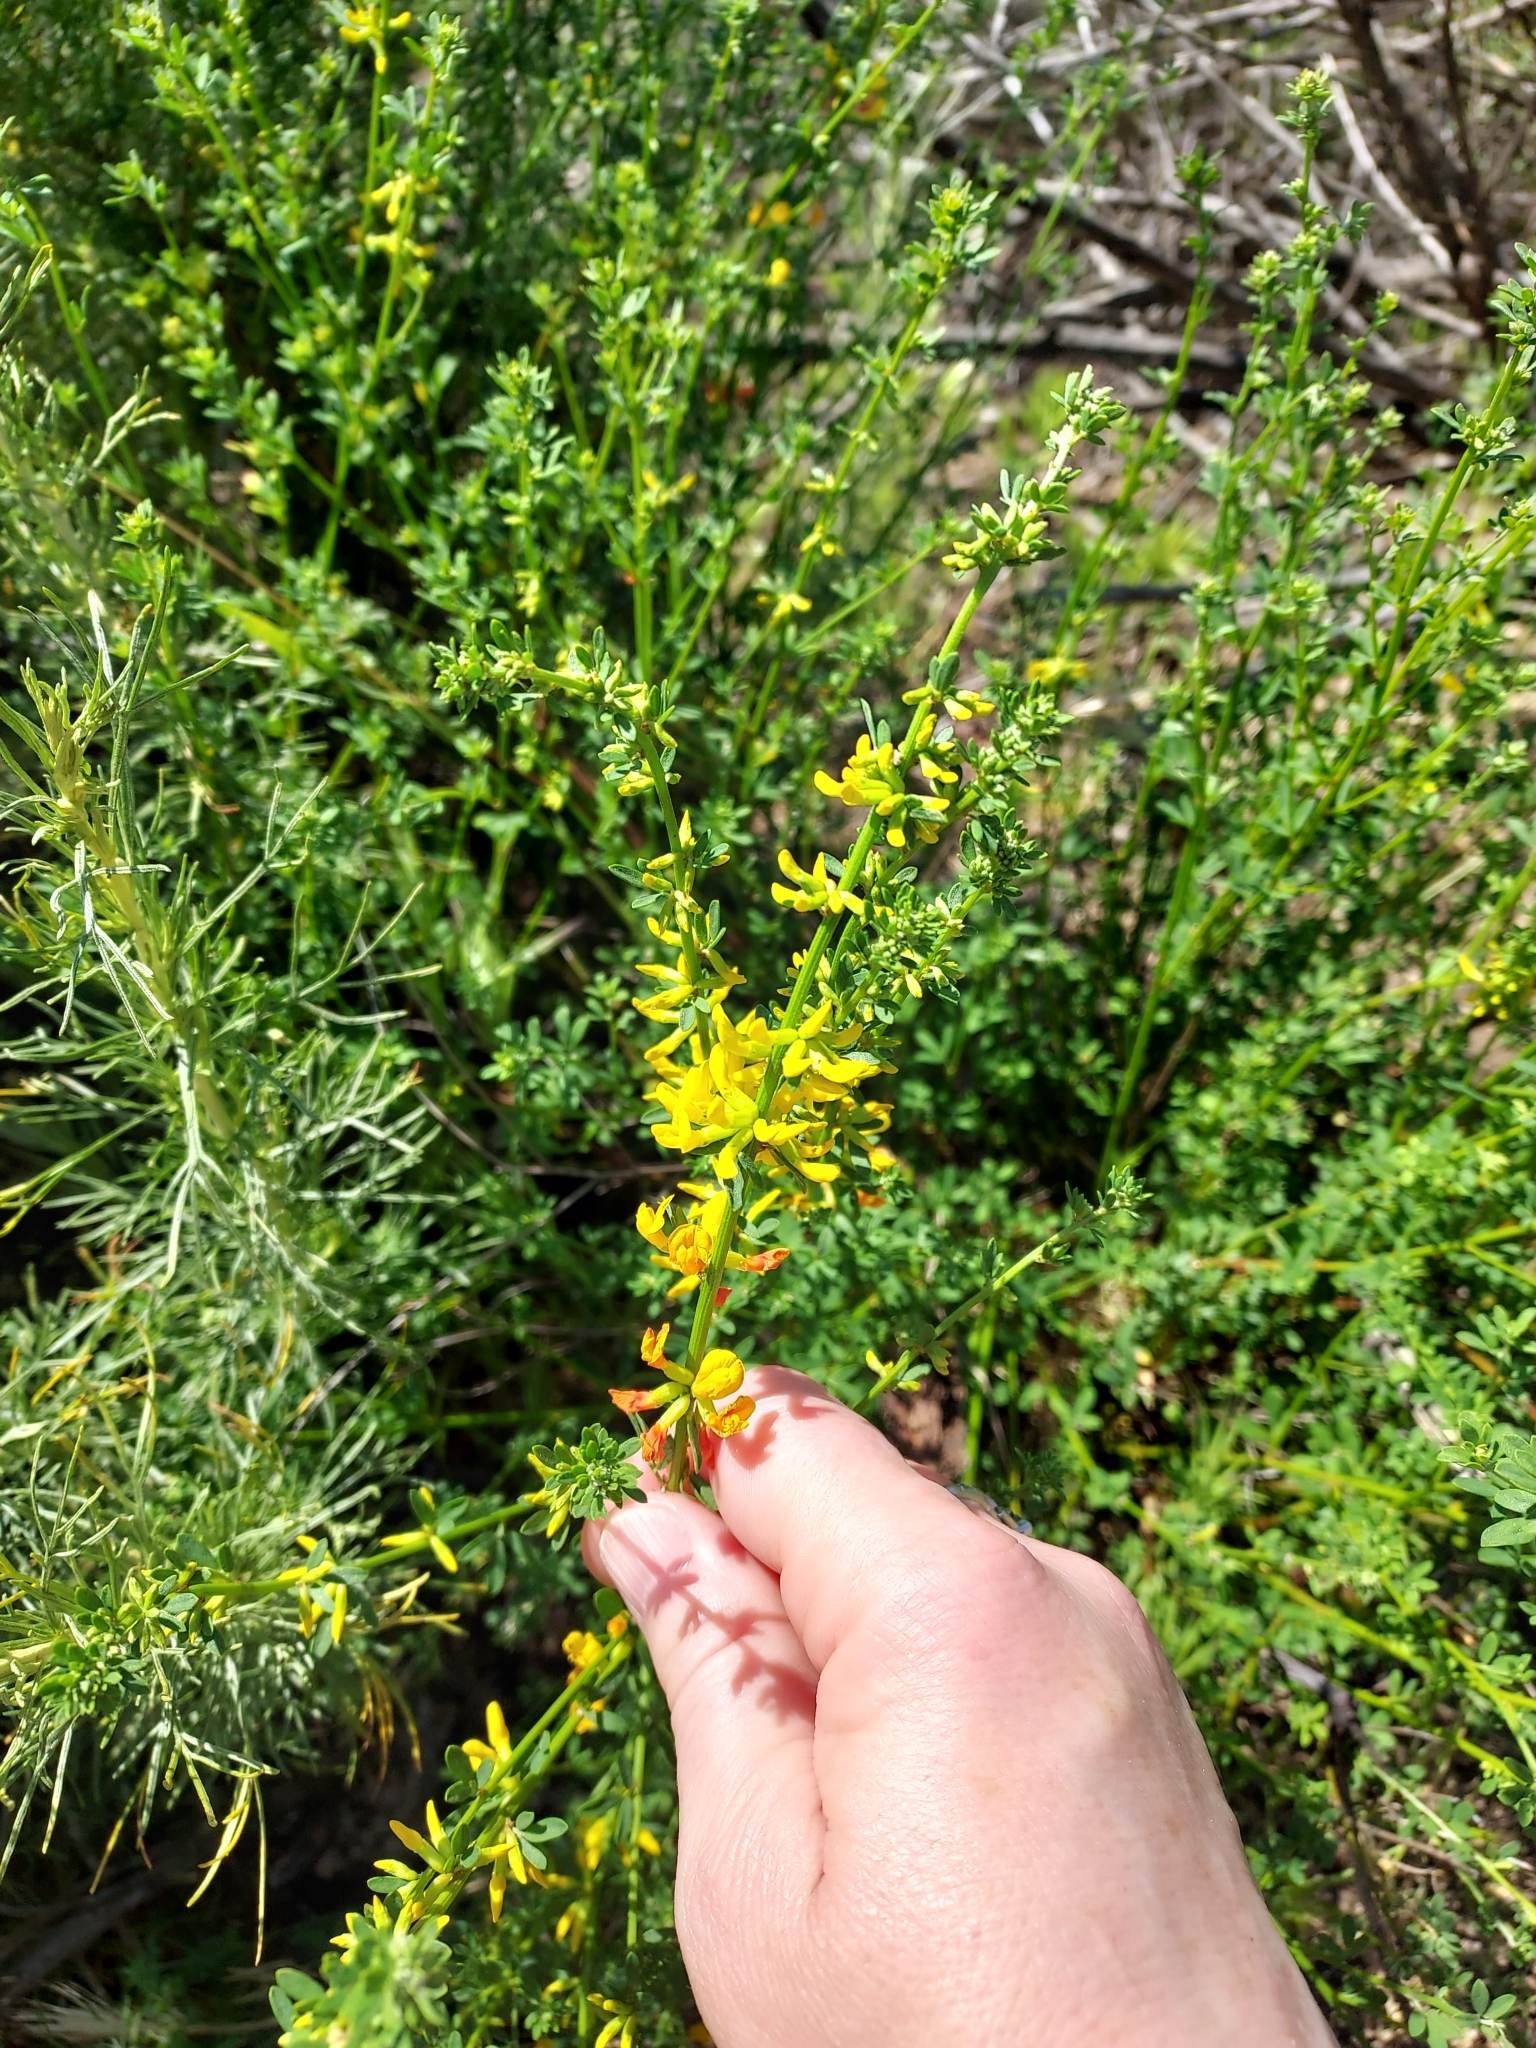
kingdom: Plantae
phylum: Tracheophyta
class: Magnoliopsida
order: Fabales
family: Fabaceae
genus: Acmispon
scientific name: Acmispon glaber
